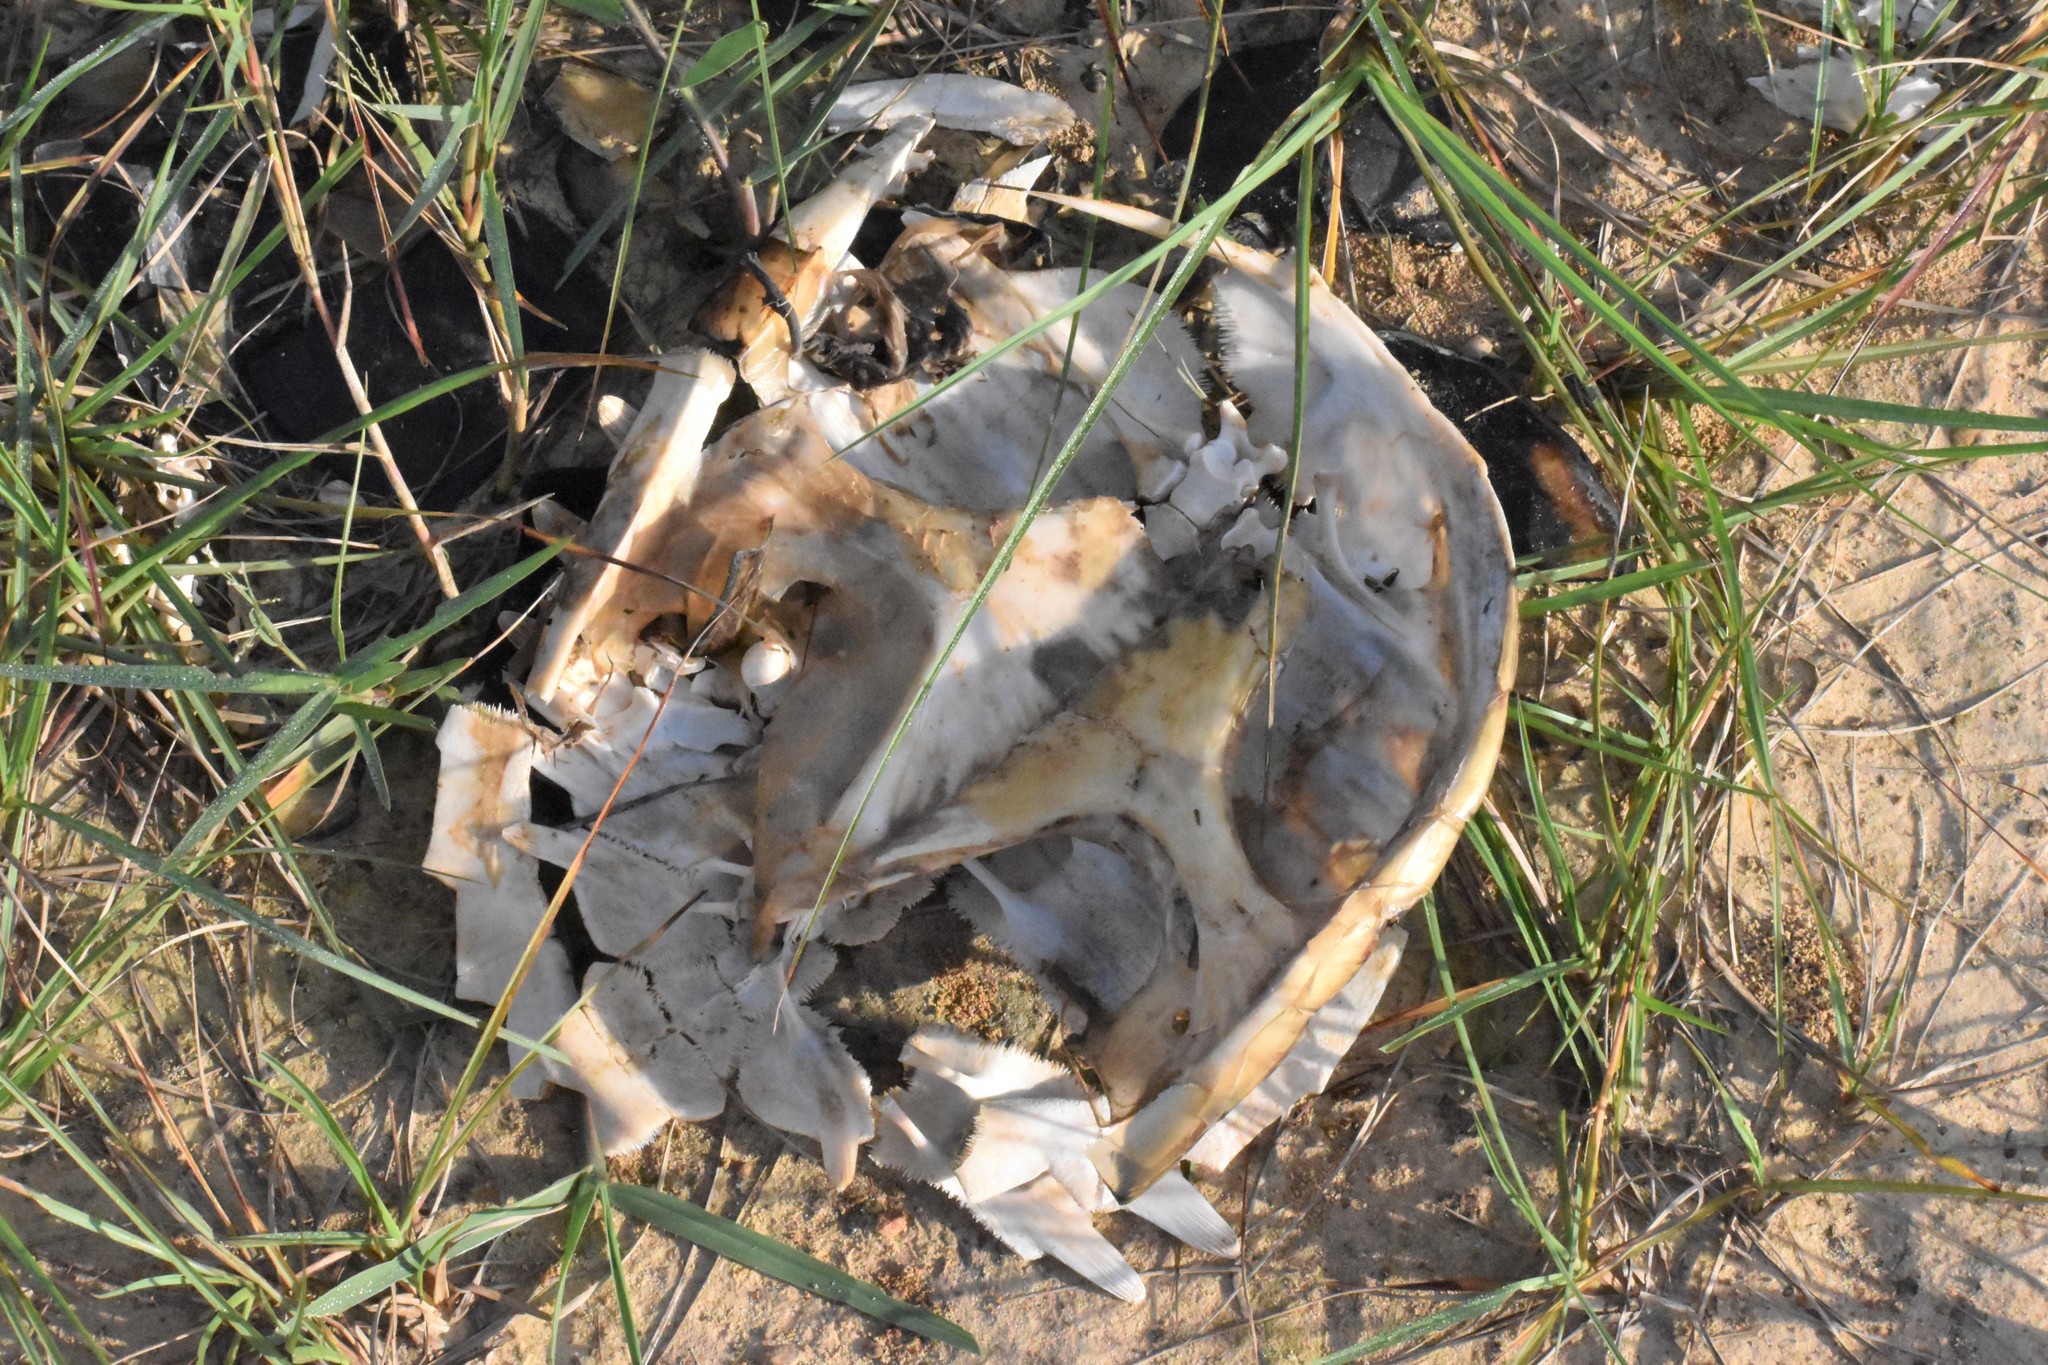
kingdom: Animalia
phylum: Chordata
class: Testudines
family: Chelydridae
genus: Chelydra
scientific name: Chelydra serpentina
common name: Common snapping turtle
